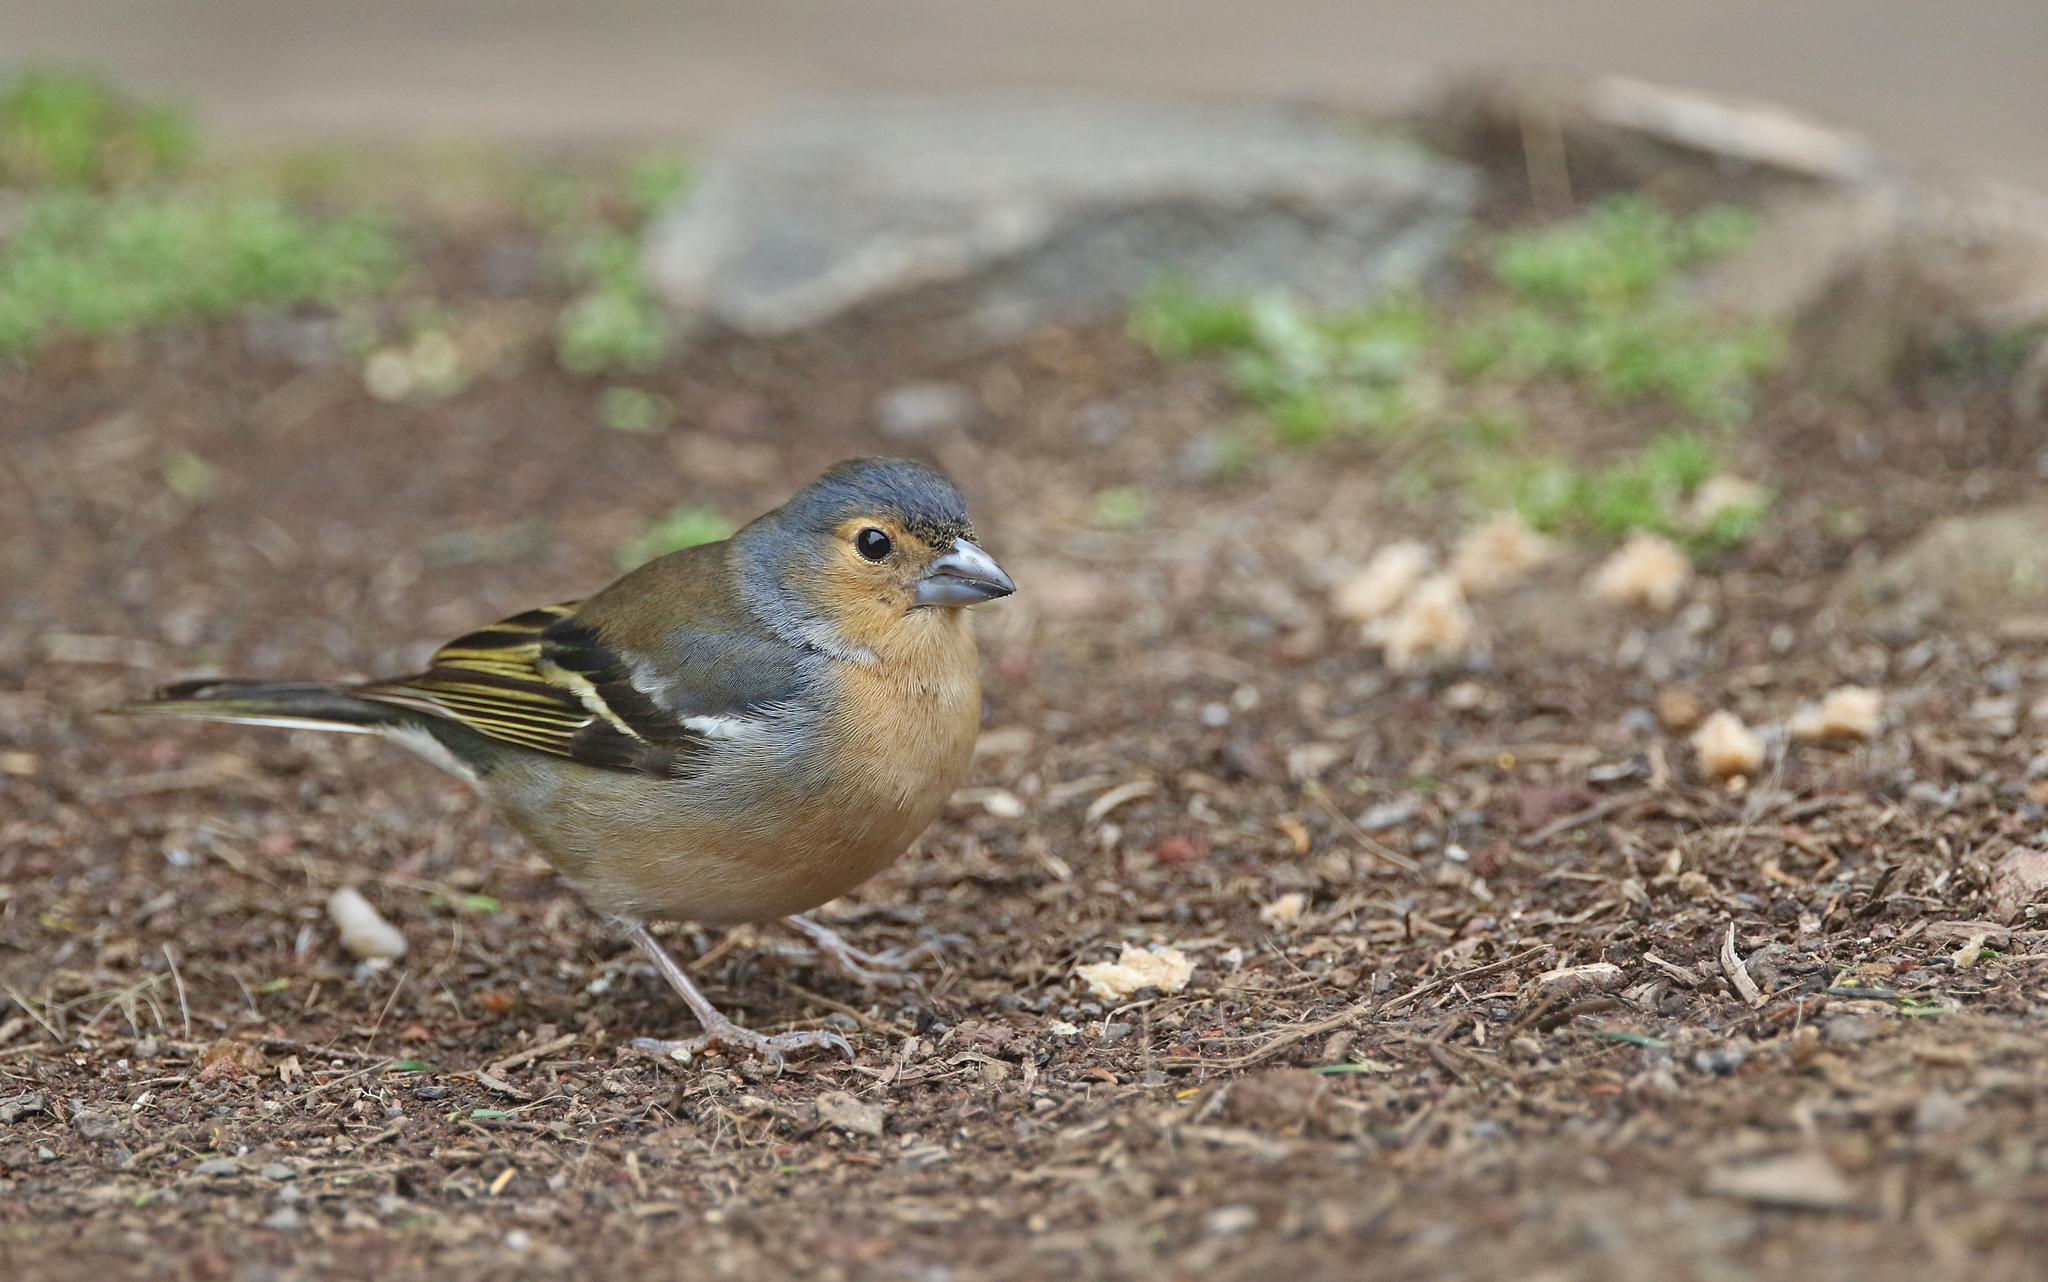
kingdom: Animalia
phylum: Chordata
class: Aves
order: Passeriformes
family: Fringillidae
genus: Fringilla
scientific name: Fringilla canariensis
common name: Canary islands chaffinch
